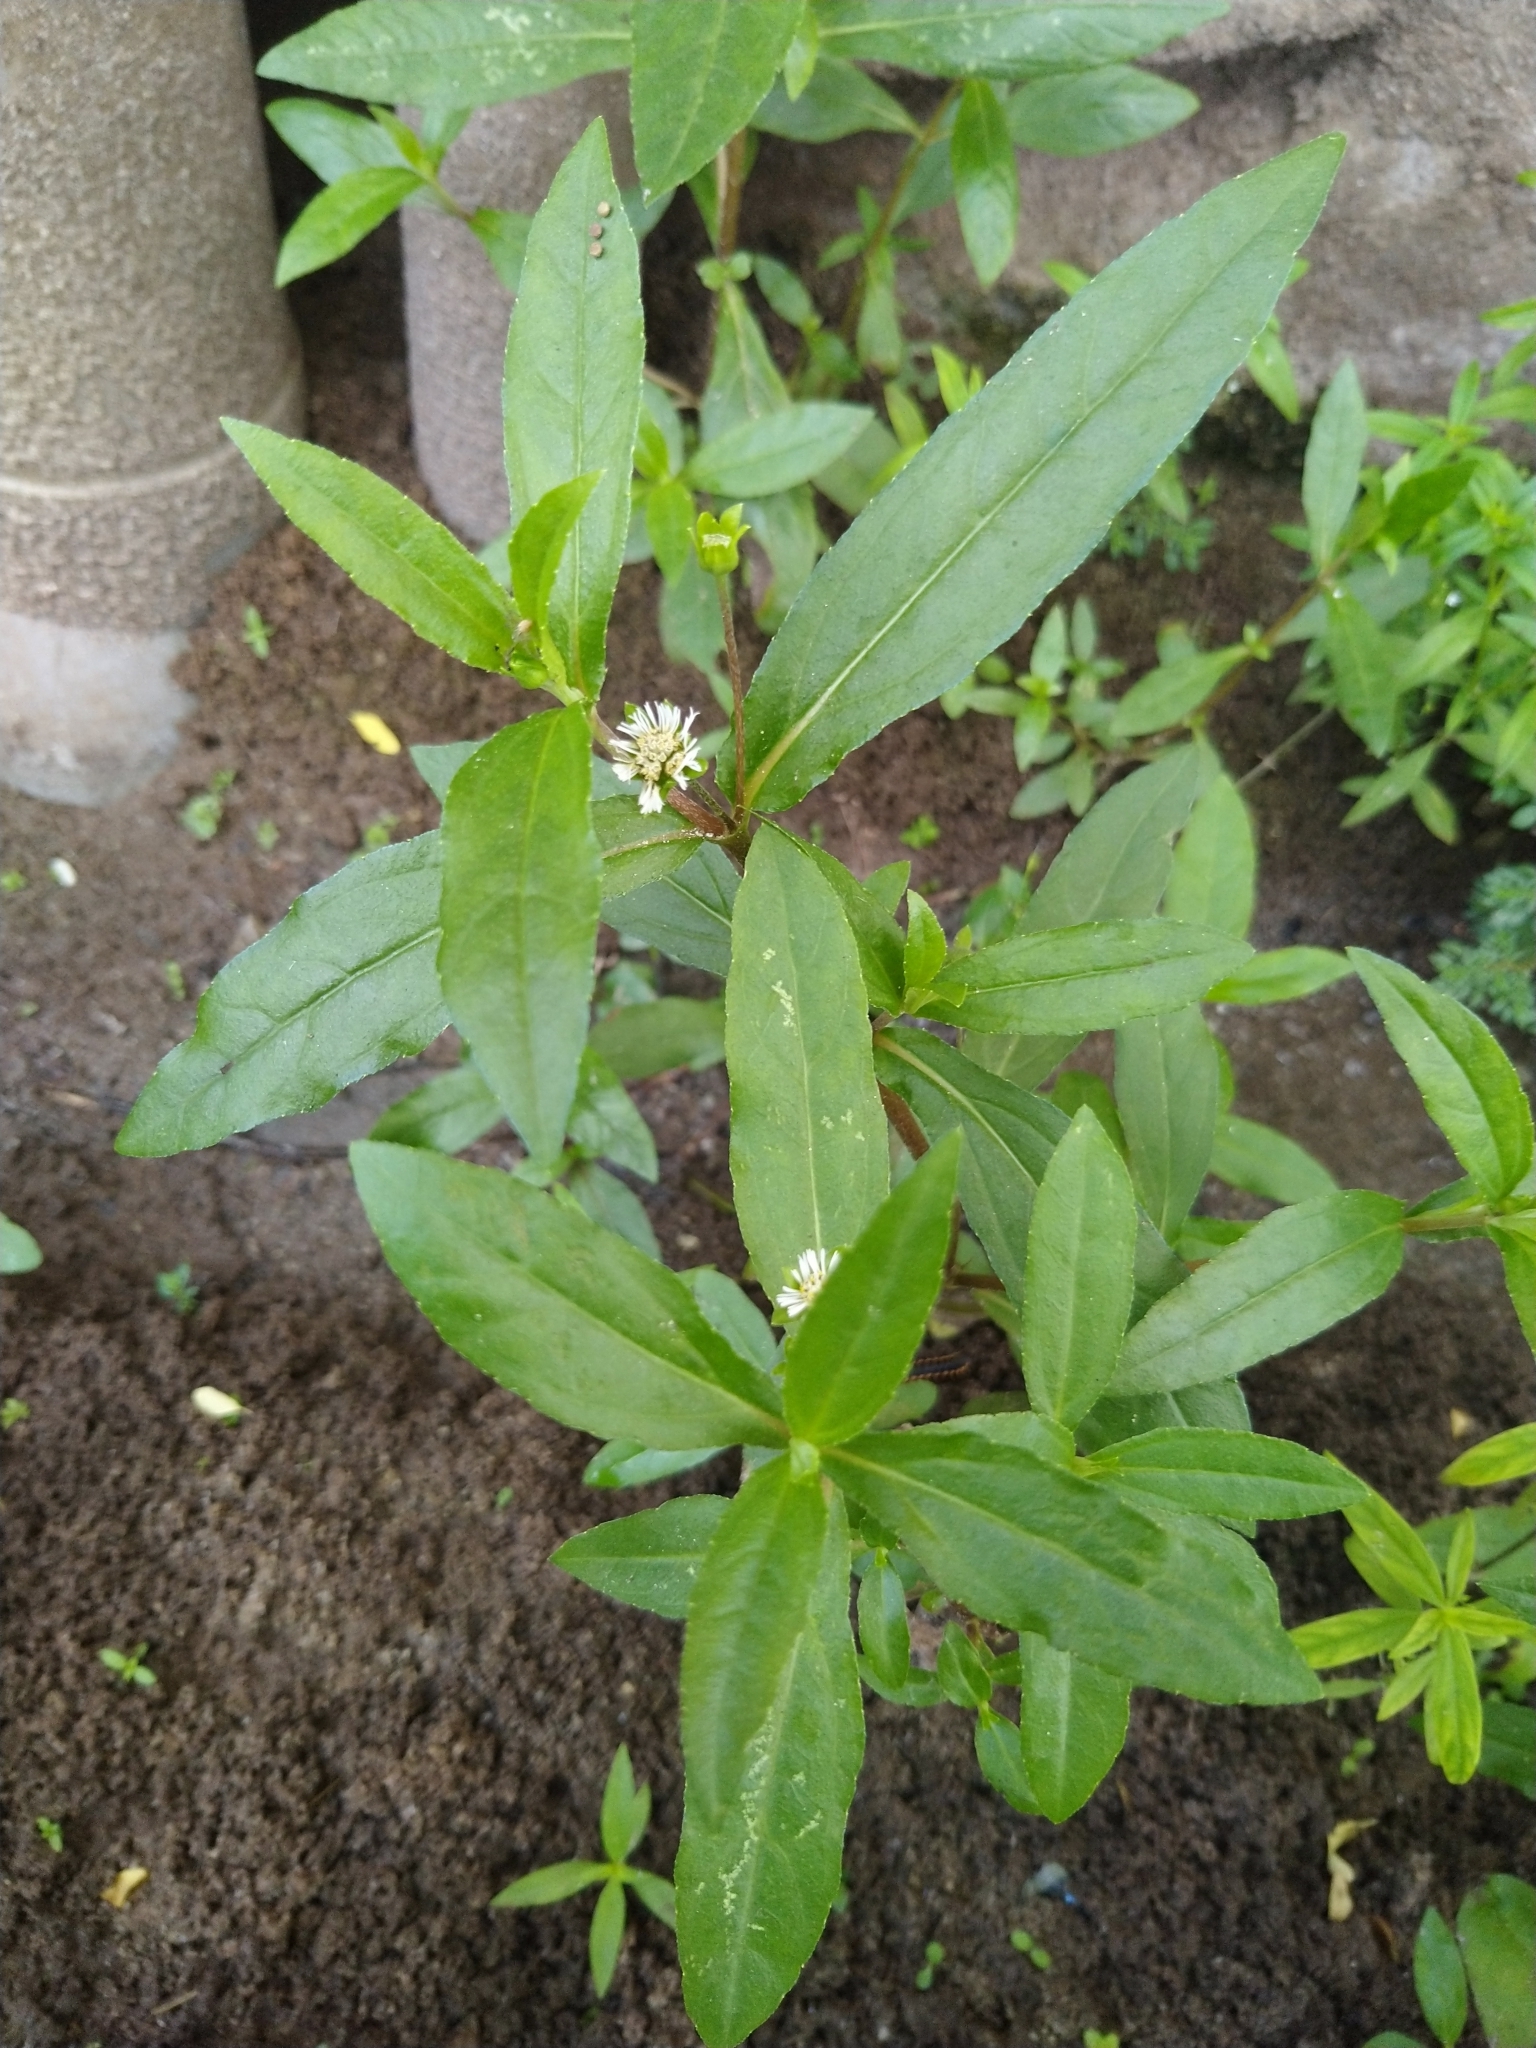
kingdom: Plantae
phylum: Tracheophyta
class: Magnoliopsida
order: Asterales
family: Asteraceae
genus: Eclipta
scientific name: Eclipta prostrata
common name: False daisy
